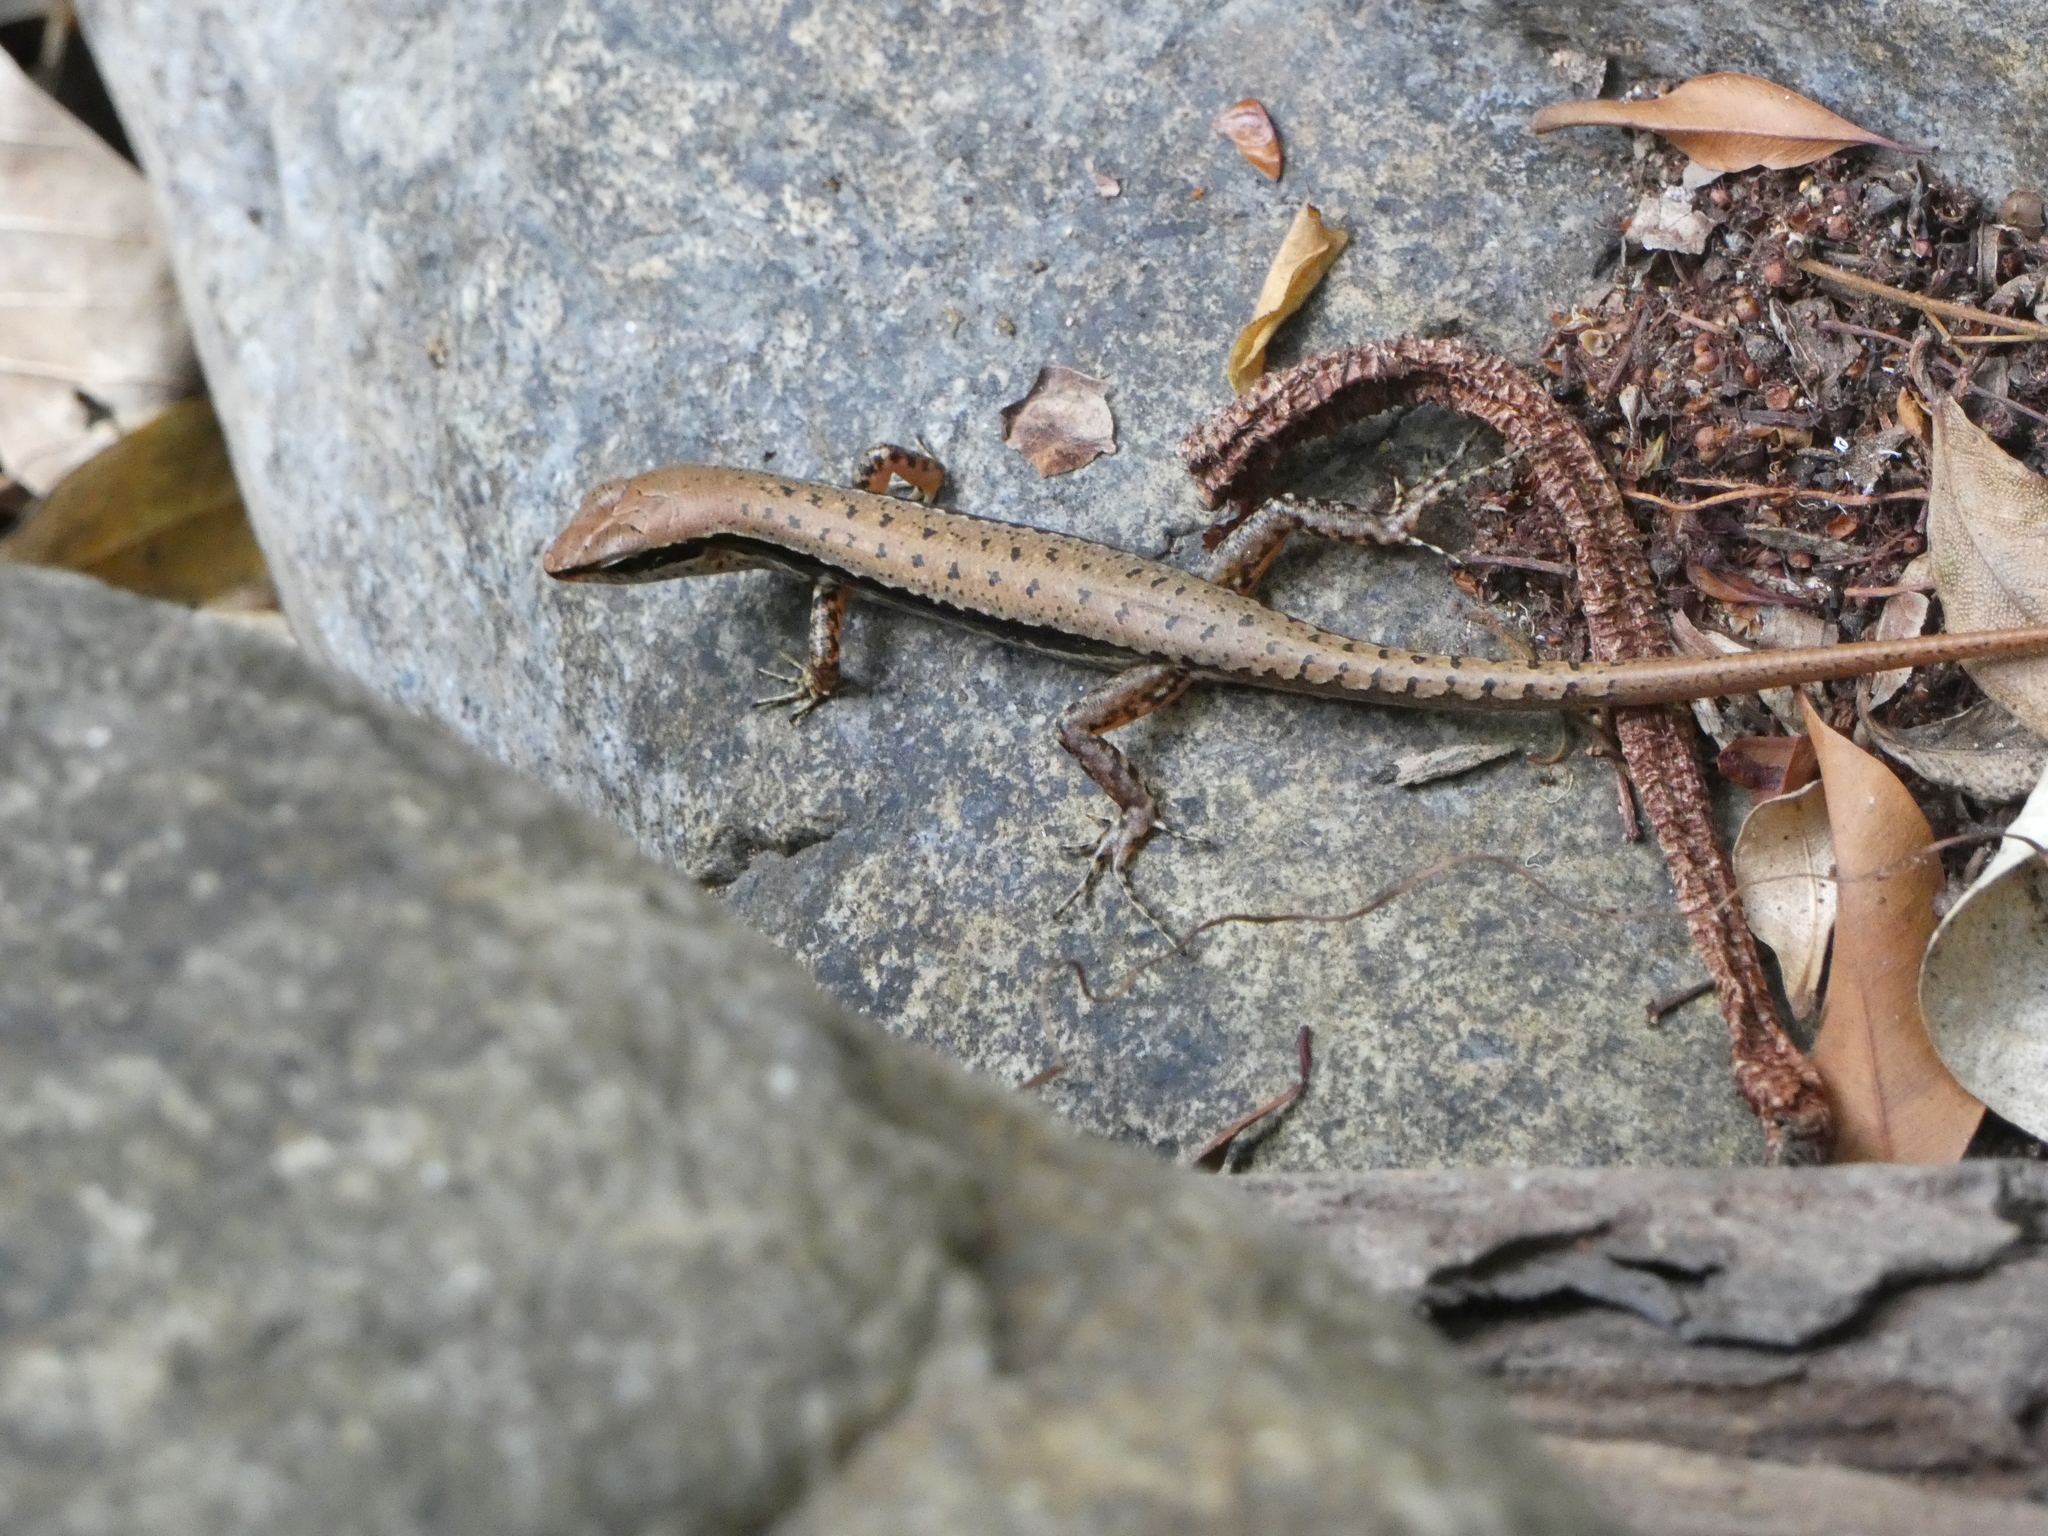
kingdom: Animalia
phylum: Chordata
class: Squamata
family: Scincidae
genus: Sphenomorphus
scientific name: Sphenomorphus maculatus
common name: Maculated forest skink
